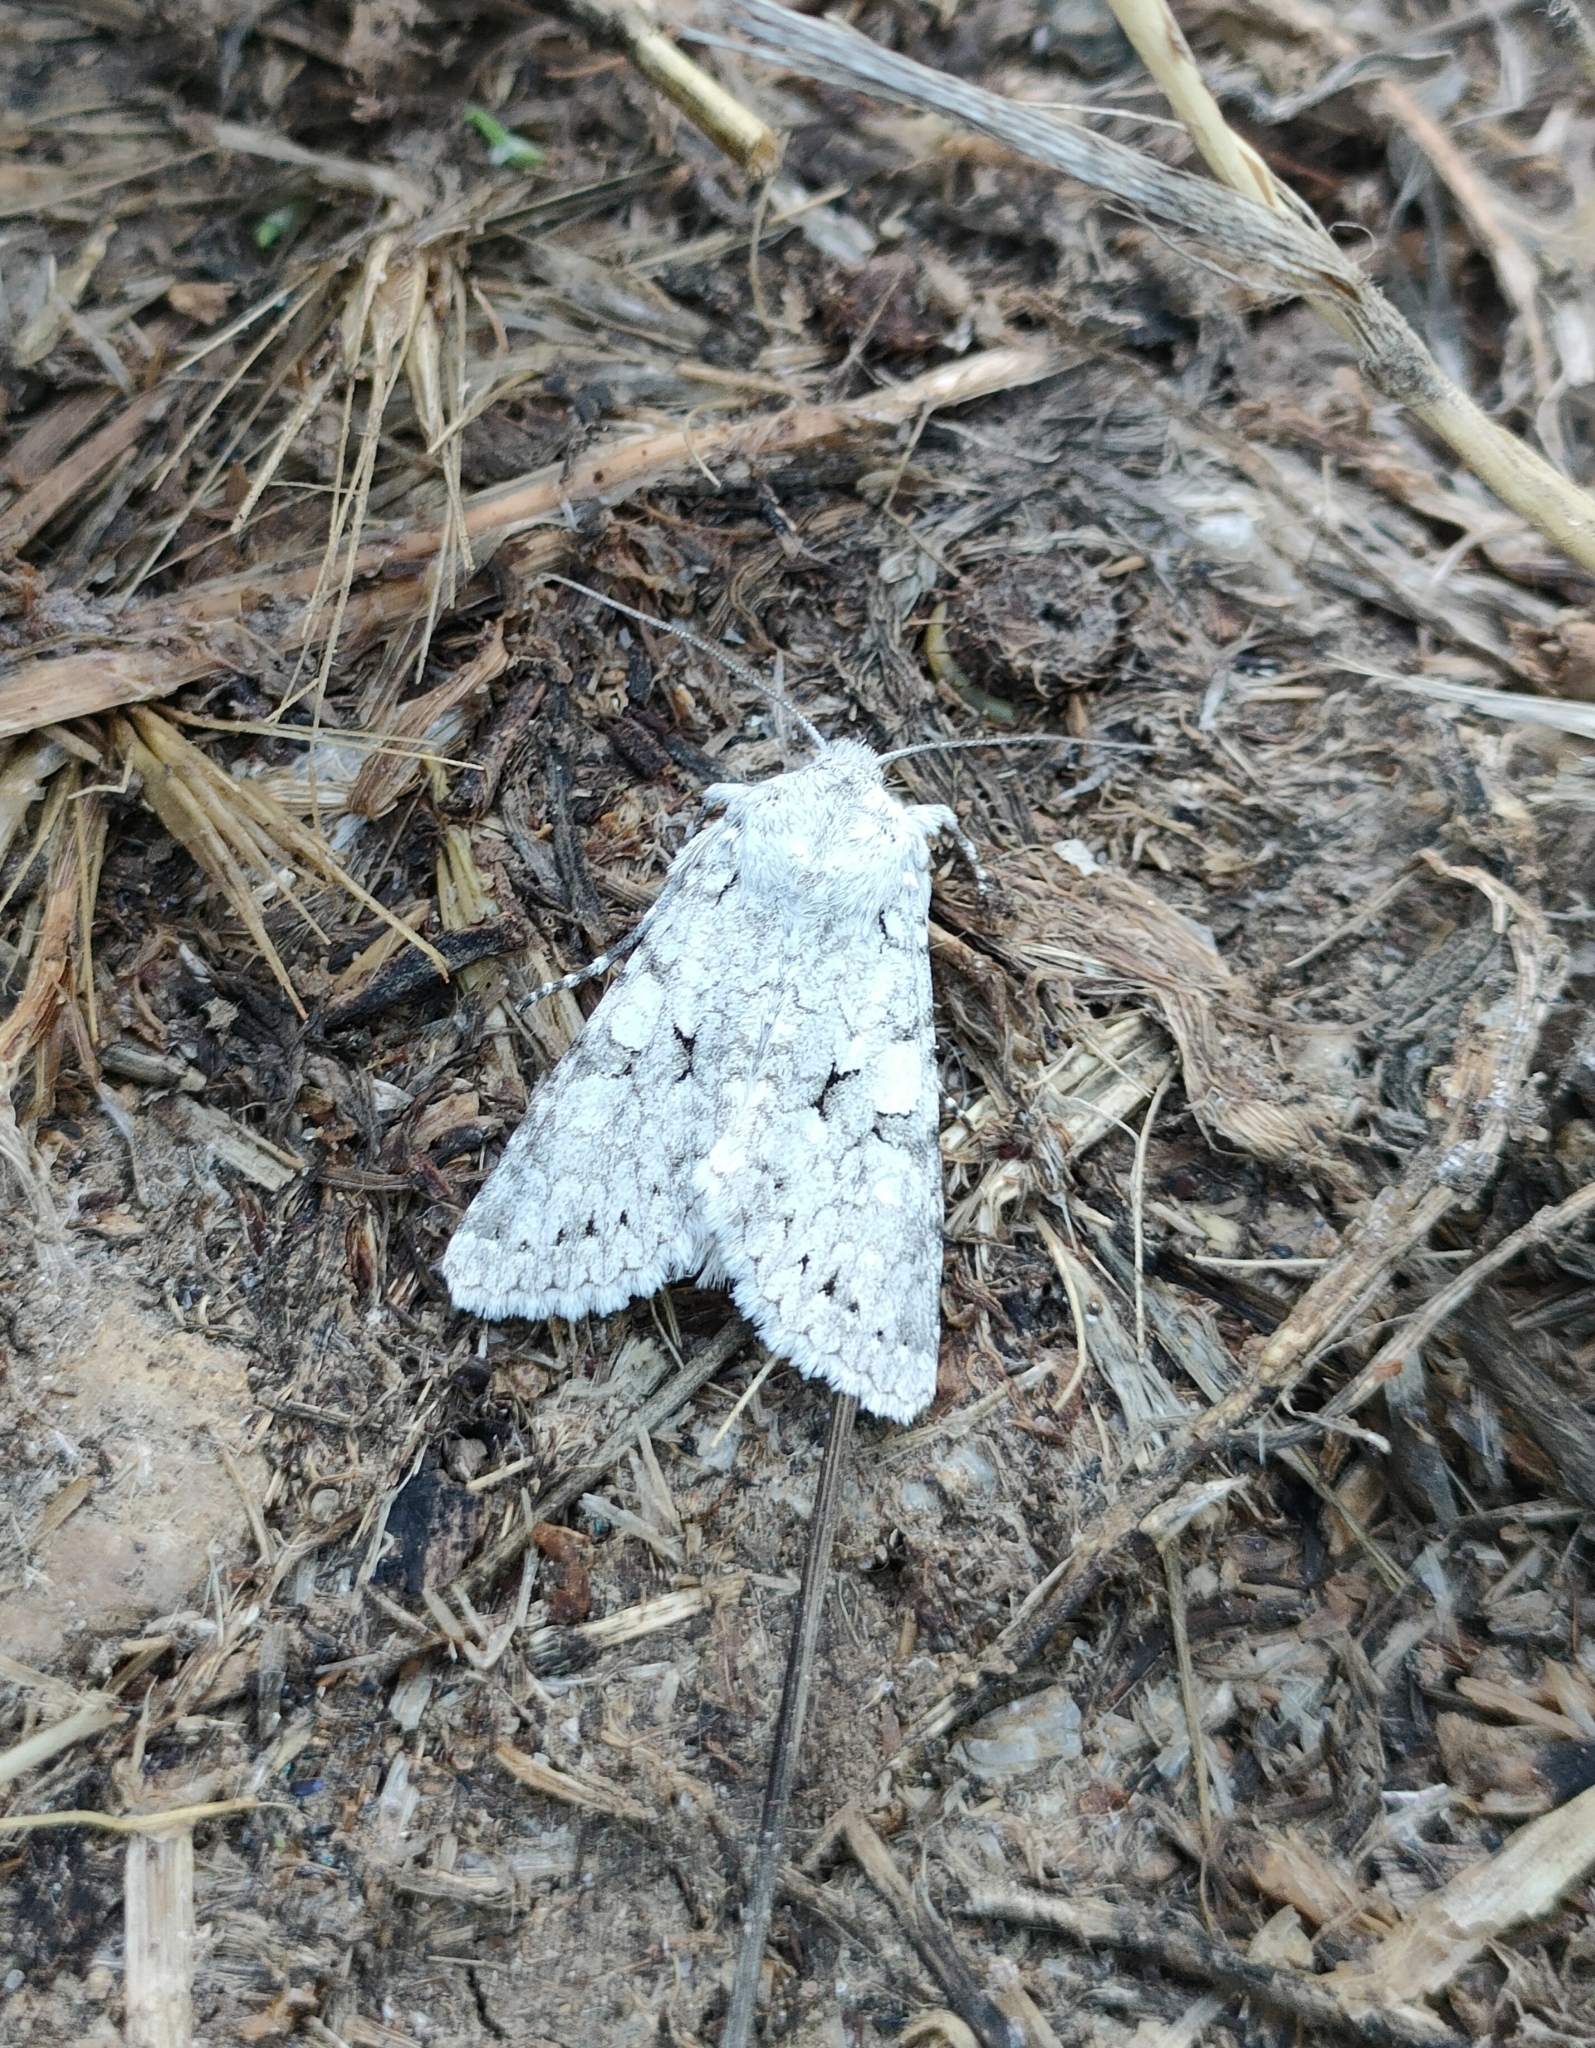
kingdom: Animalia
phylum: Arthropoda
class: Insecta
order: Lepidoptera
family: Noctuidae
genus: Antitype
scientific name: Antitype chi
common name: Grey chi
